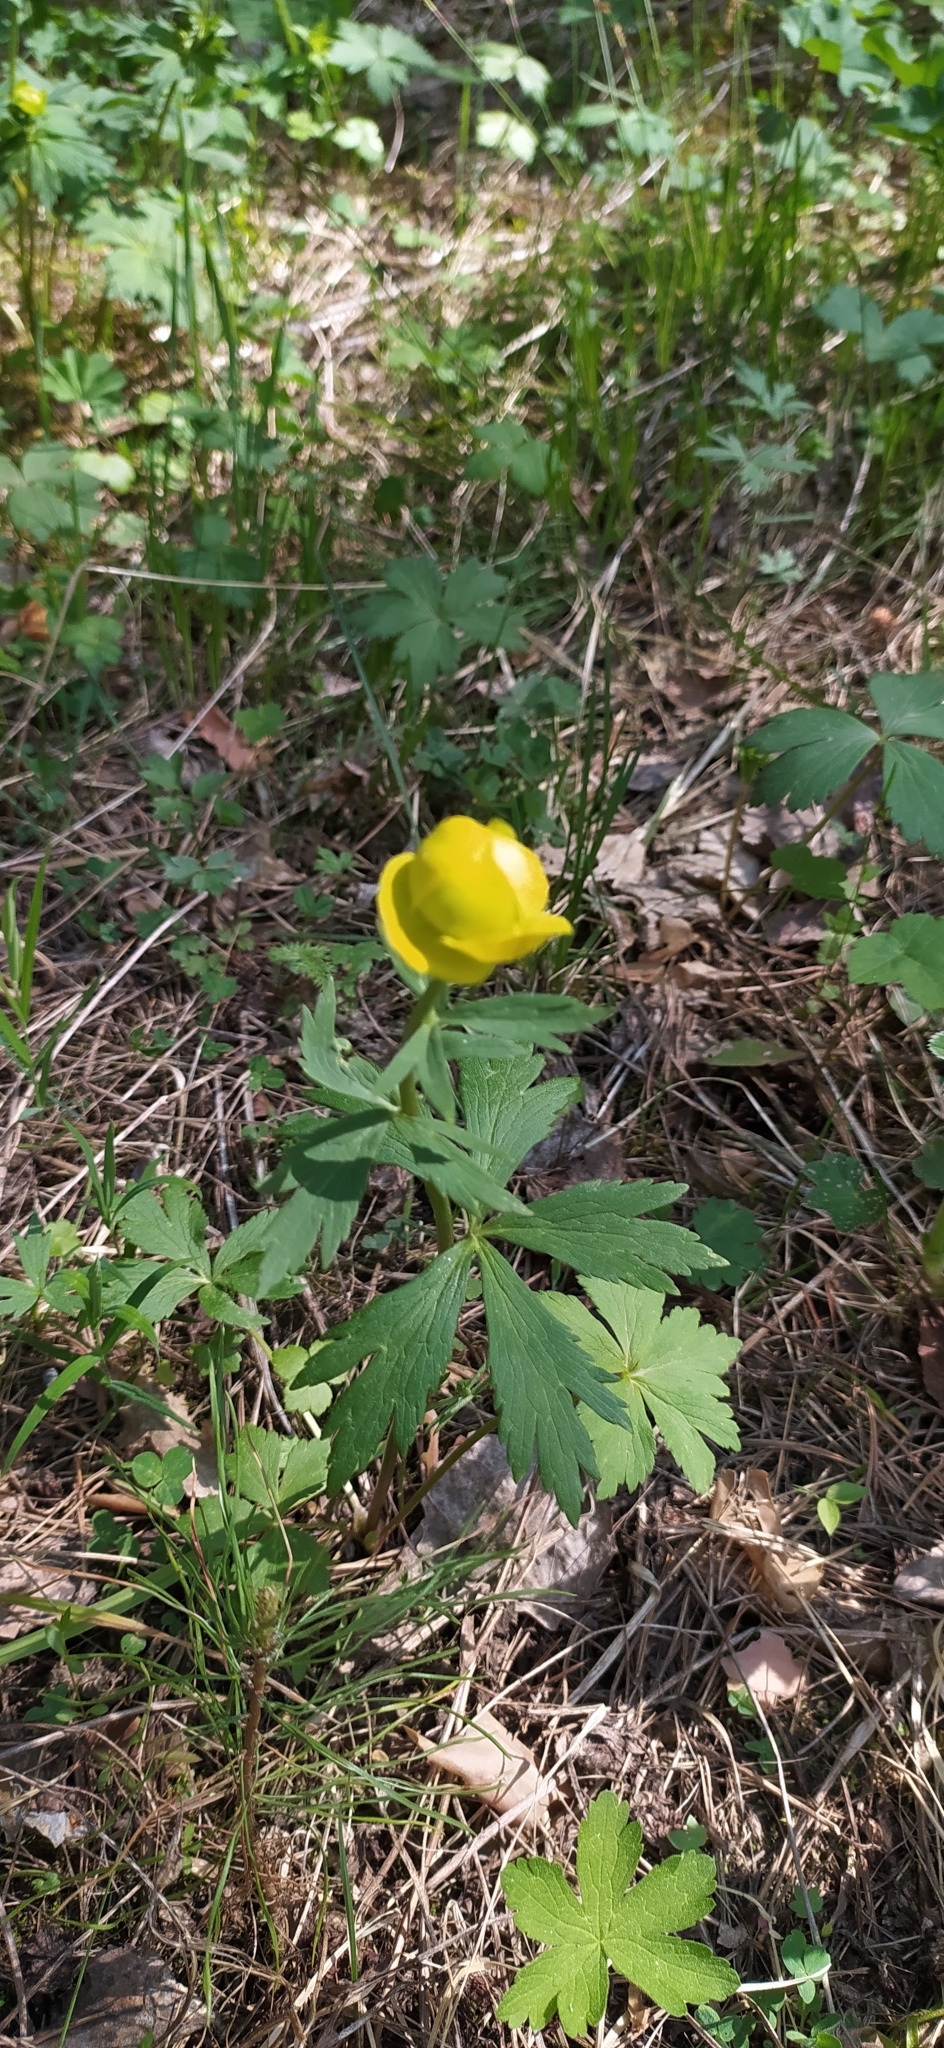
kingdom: Plantae
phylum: Tracheophyta
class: Magnoliopsida
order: Ranunculales
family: Ranunculaceae
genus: Trollius
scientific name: Trollius europaeus
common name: European globeflower
